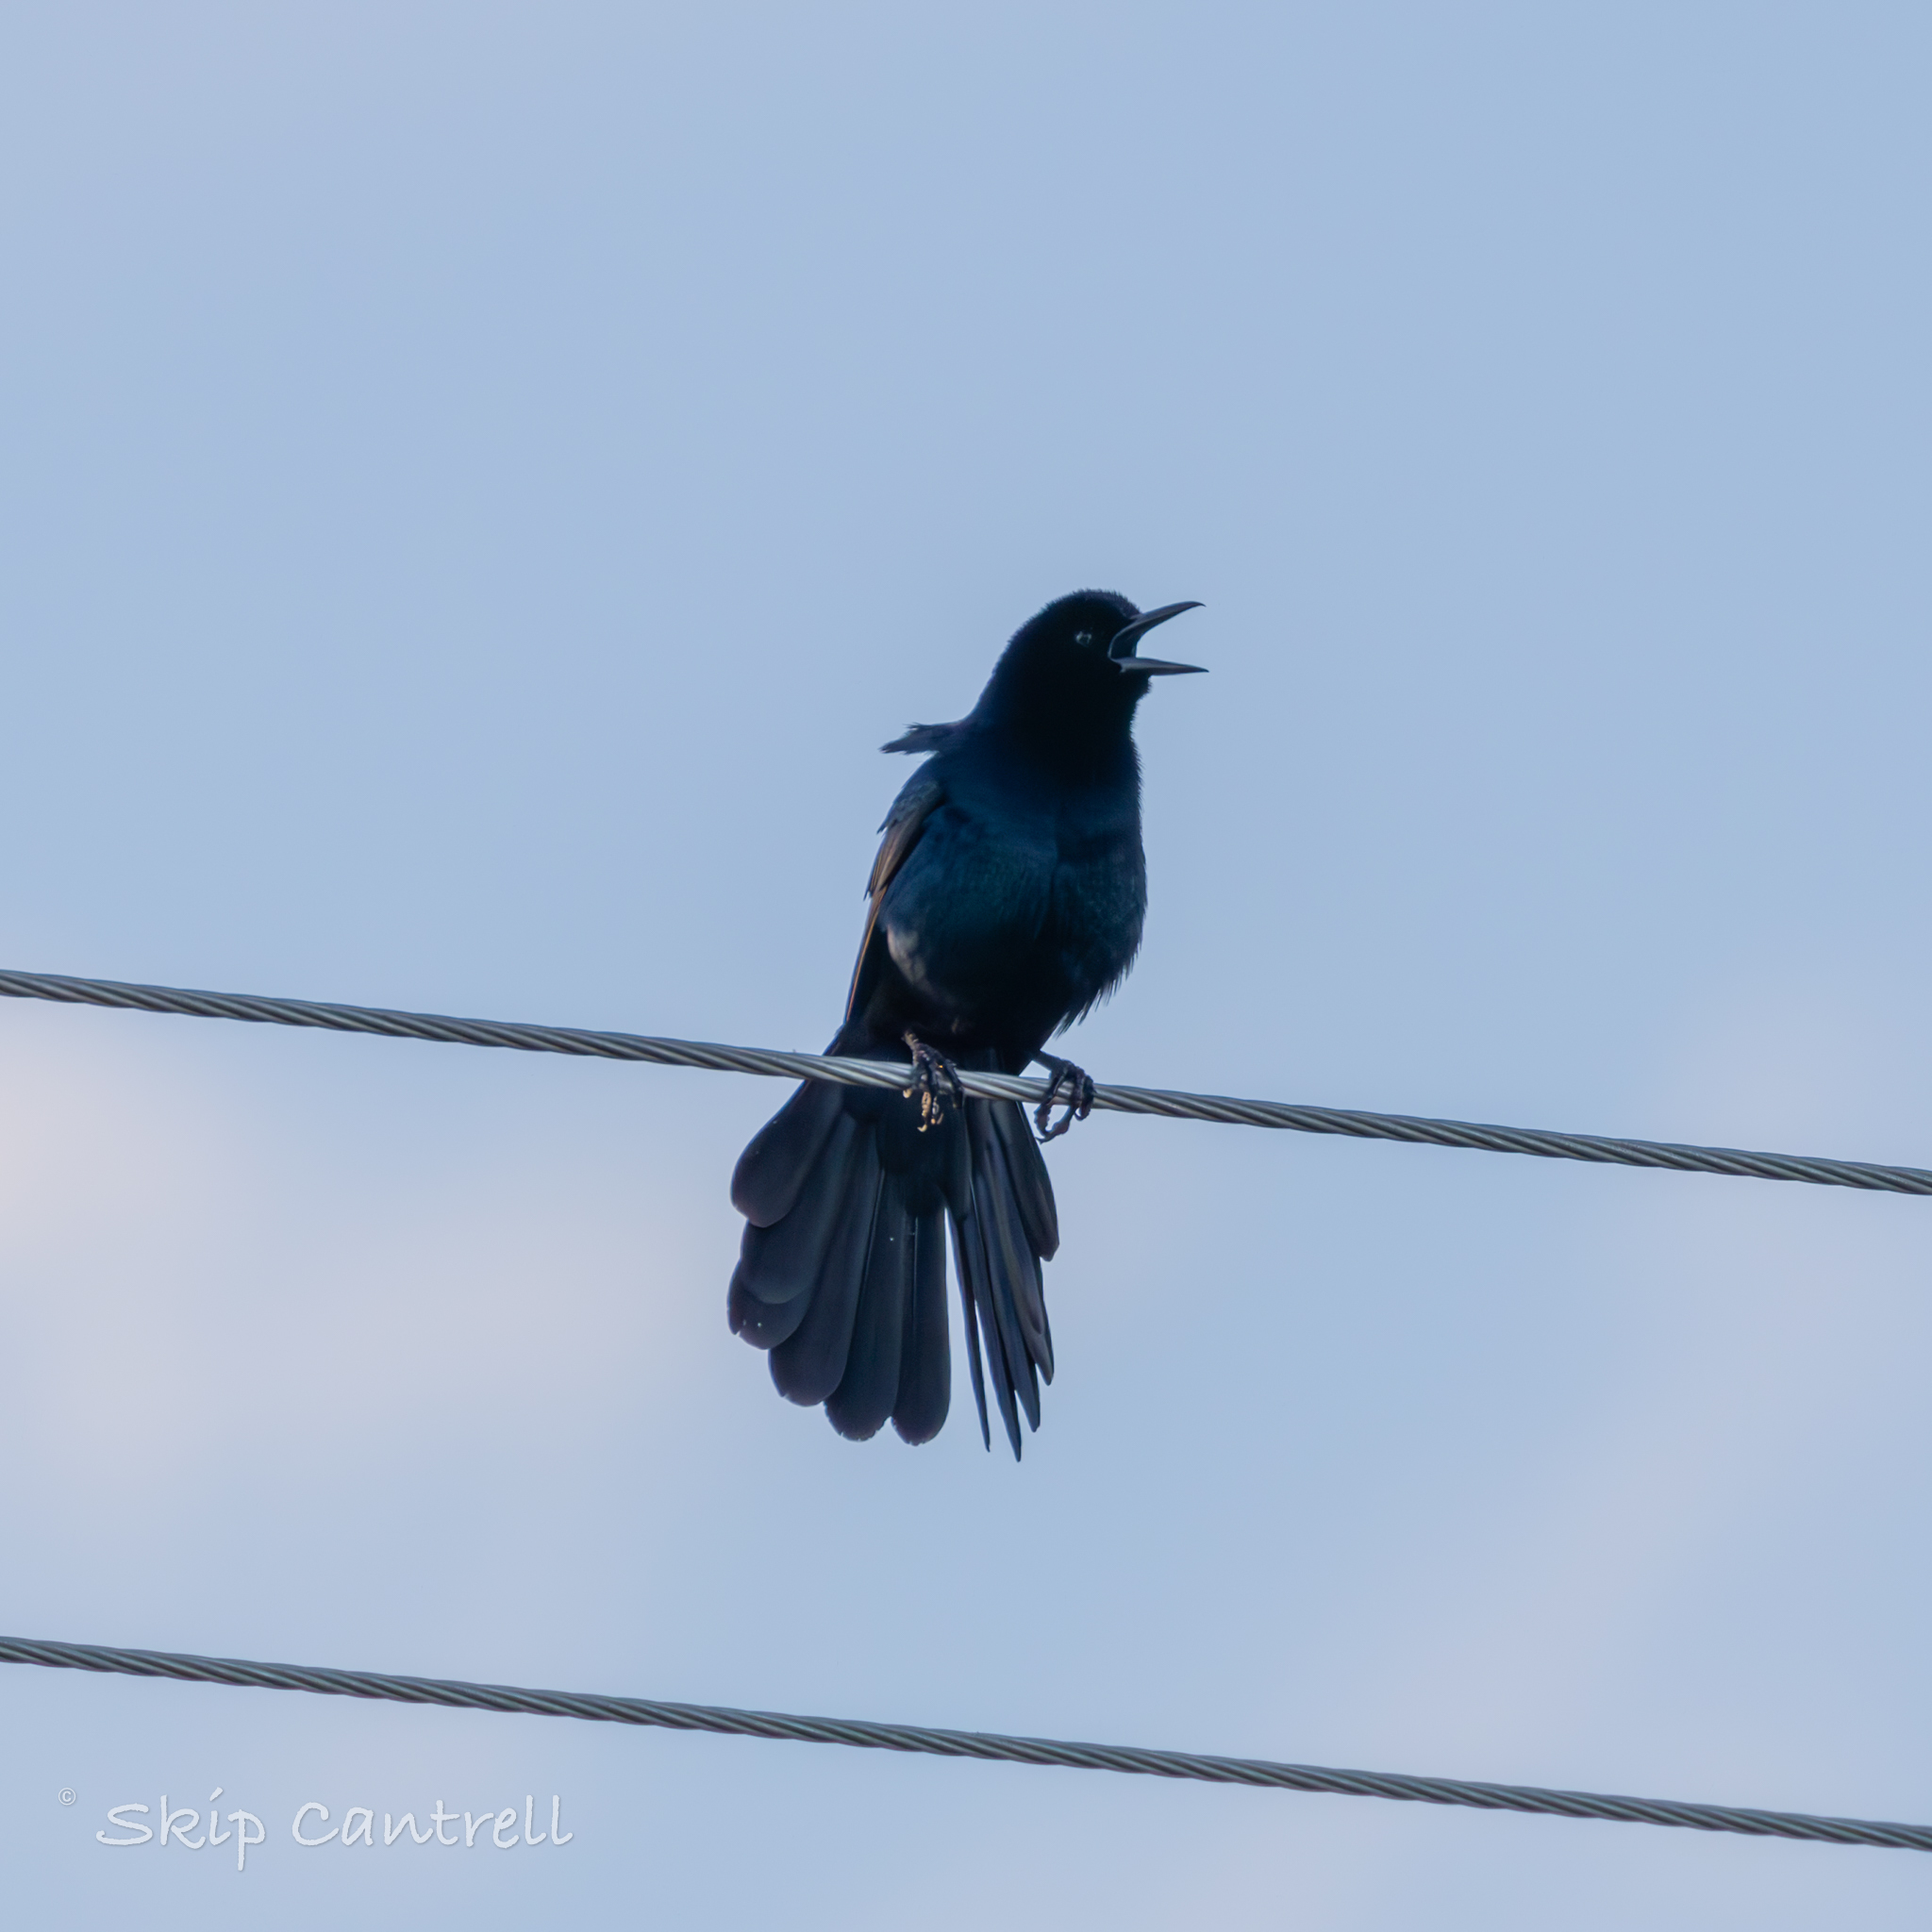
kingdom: Animalia
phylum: Chordata
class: Aves
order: Passeriformes
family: Icteridae
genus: Quiscalus
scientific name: Quiscalus major
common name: Boat-tailed grackle
